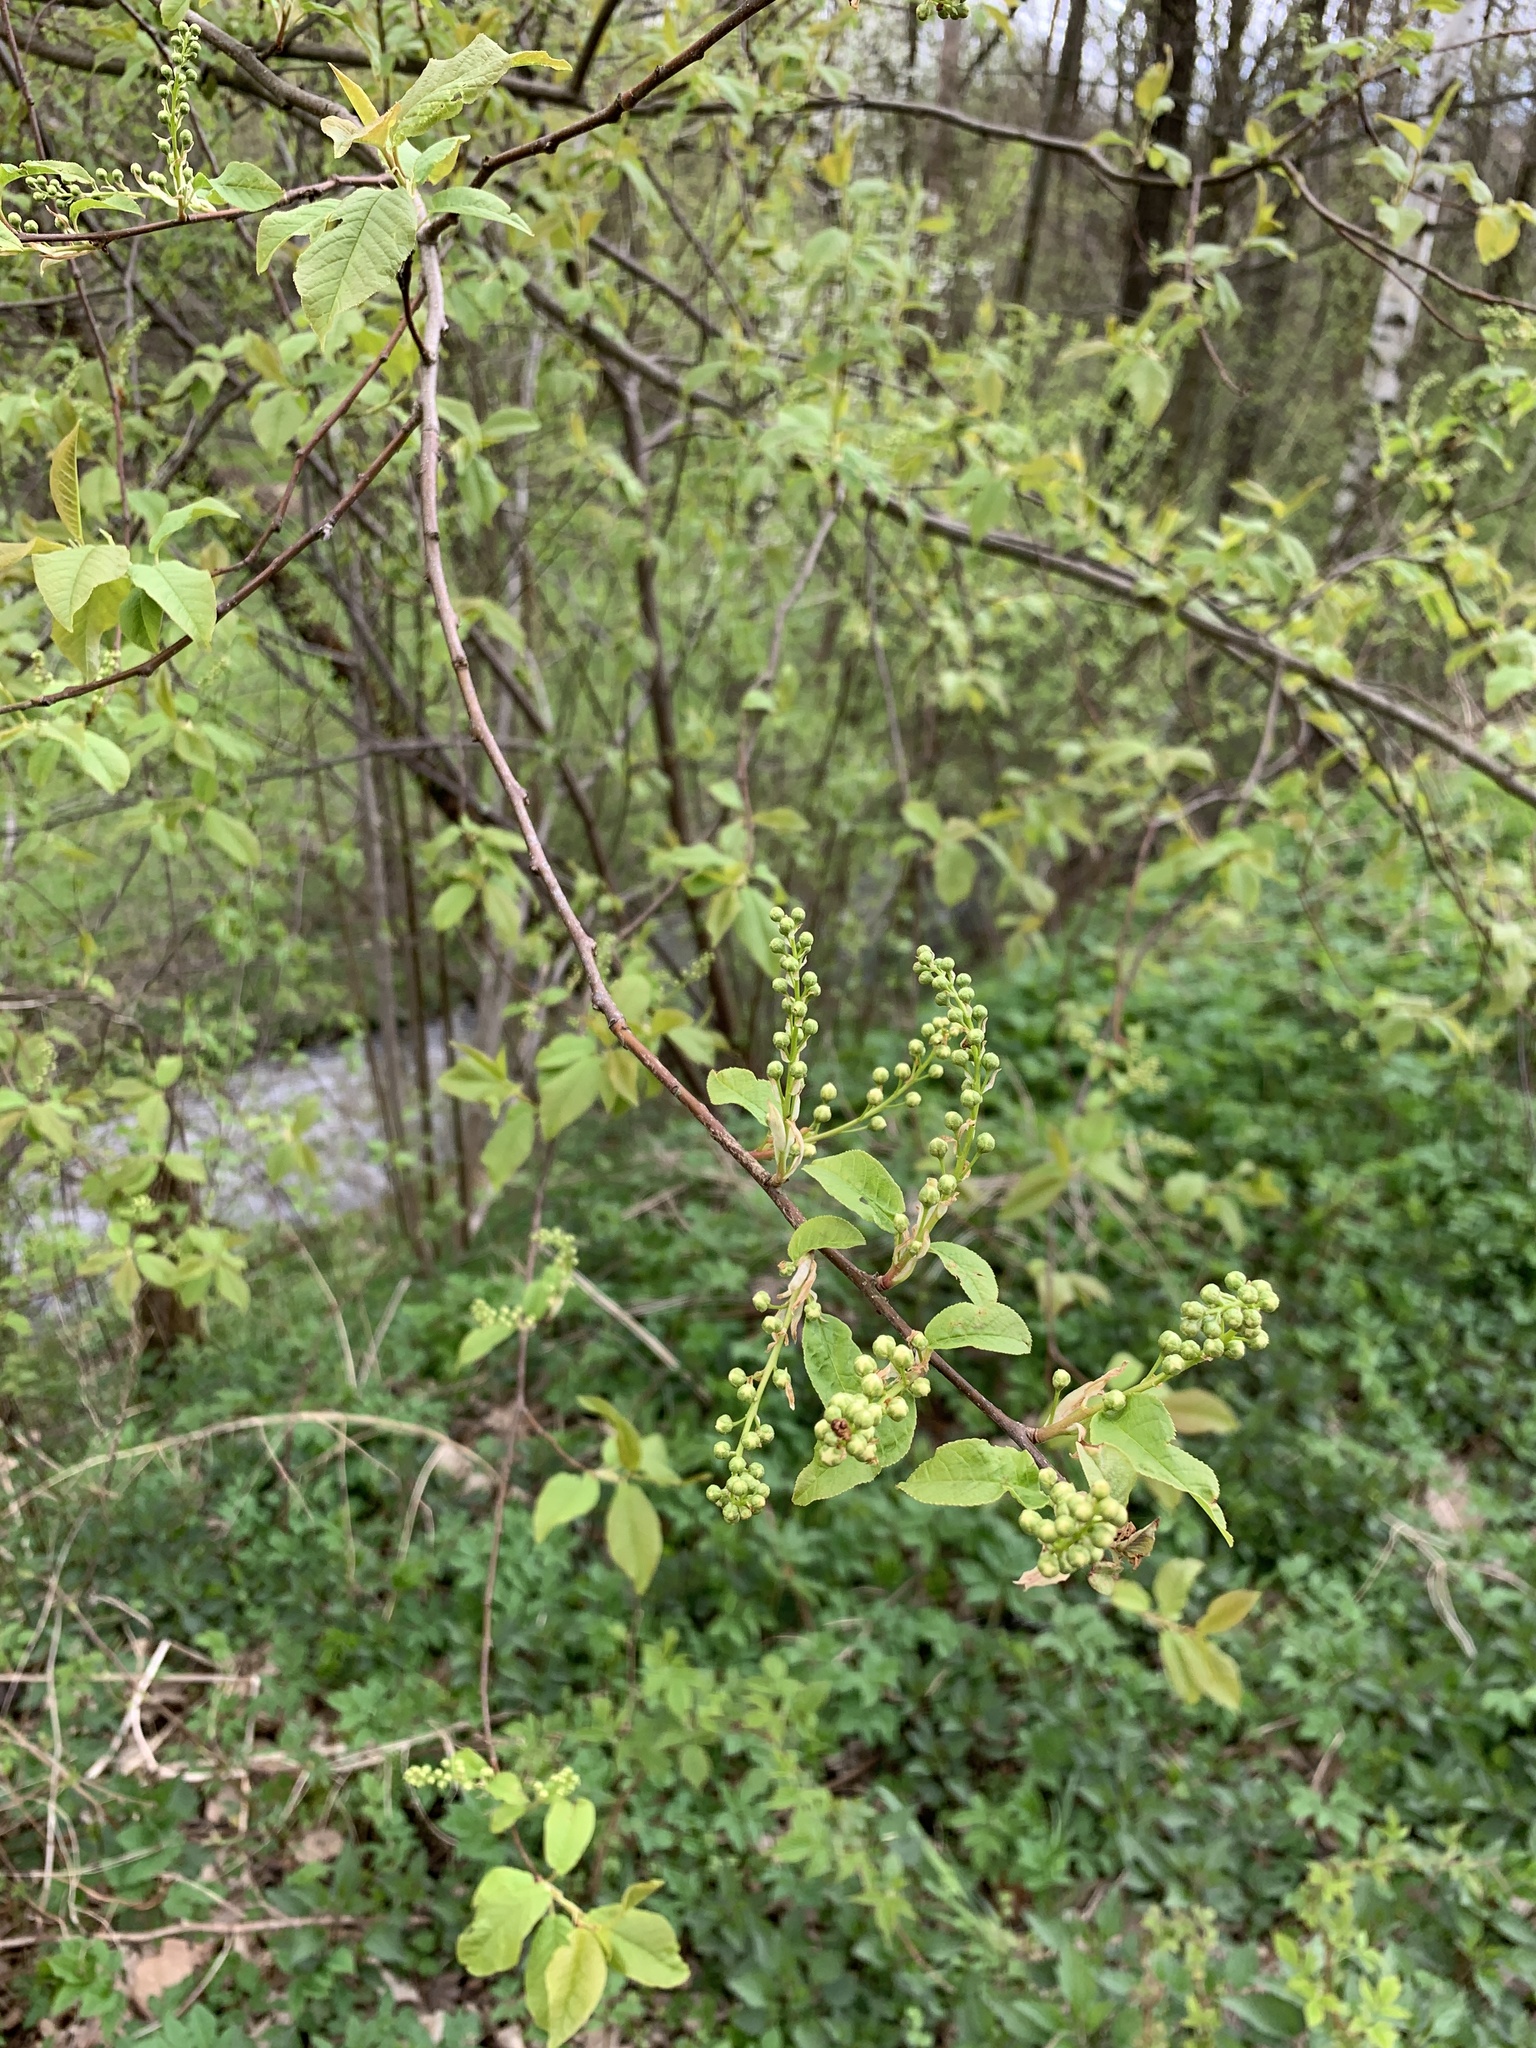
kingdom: Plantae
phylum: Tracheophyta
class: Magnoliopsida
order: Rosales
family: Rosaceae
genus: Prunus
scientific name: Prunus padus
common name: Bird cherry
